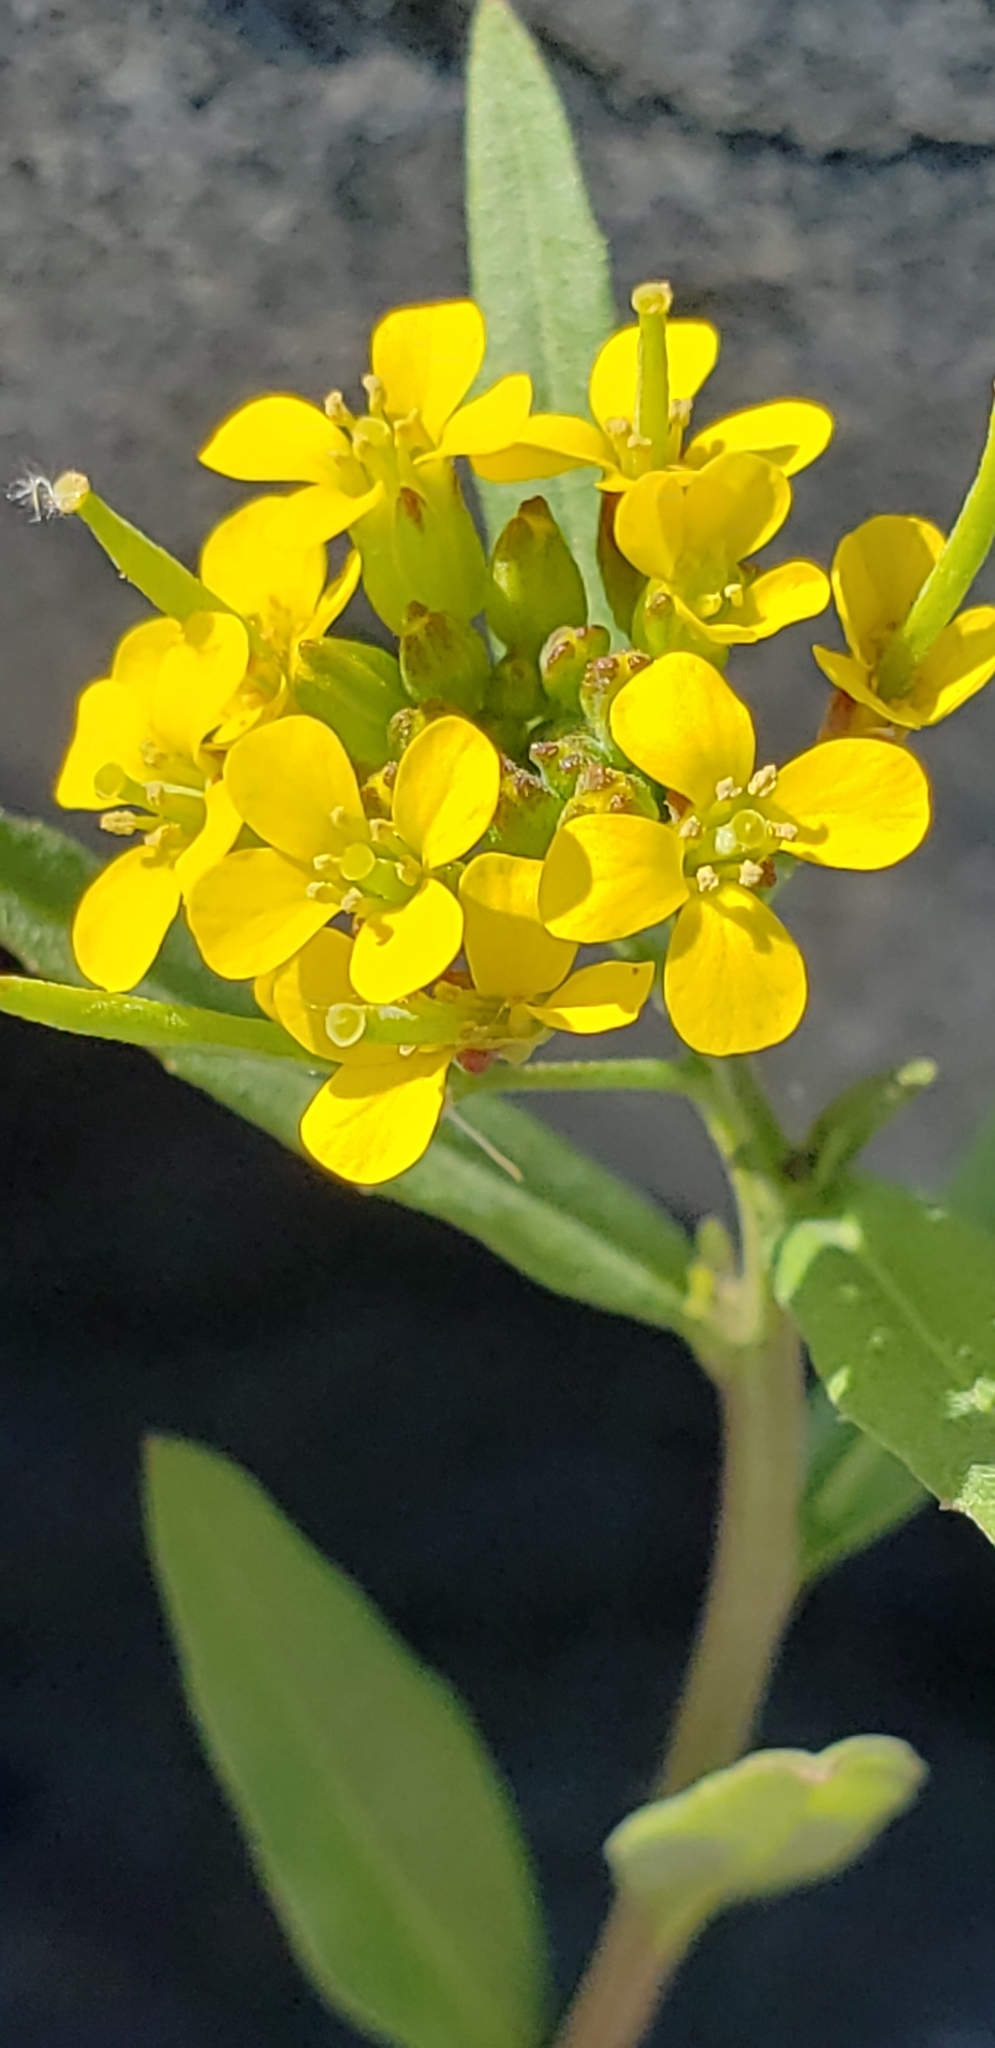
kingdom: Plantae
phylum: Tracheophyta
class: Magnoliopsida
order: Brassicales
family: Brassicaceae
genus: Erysimum
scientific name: Erysimum cheiranthoides
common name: Treacle mustard
